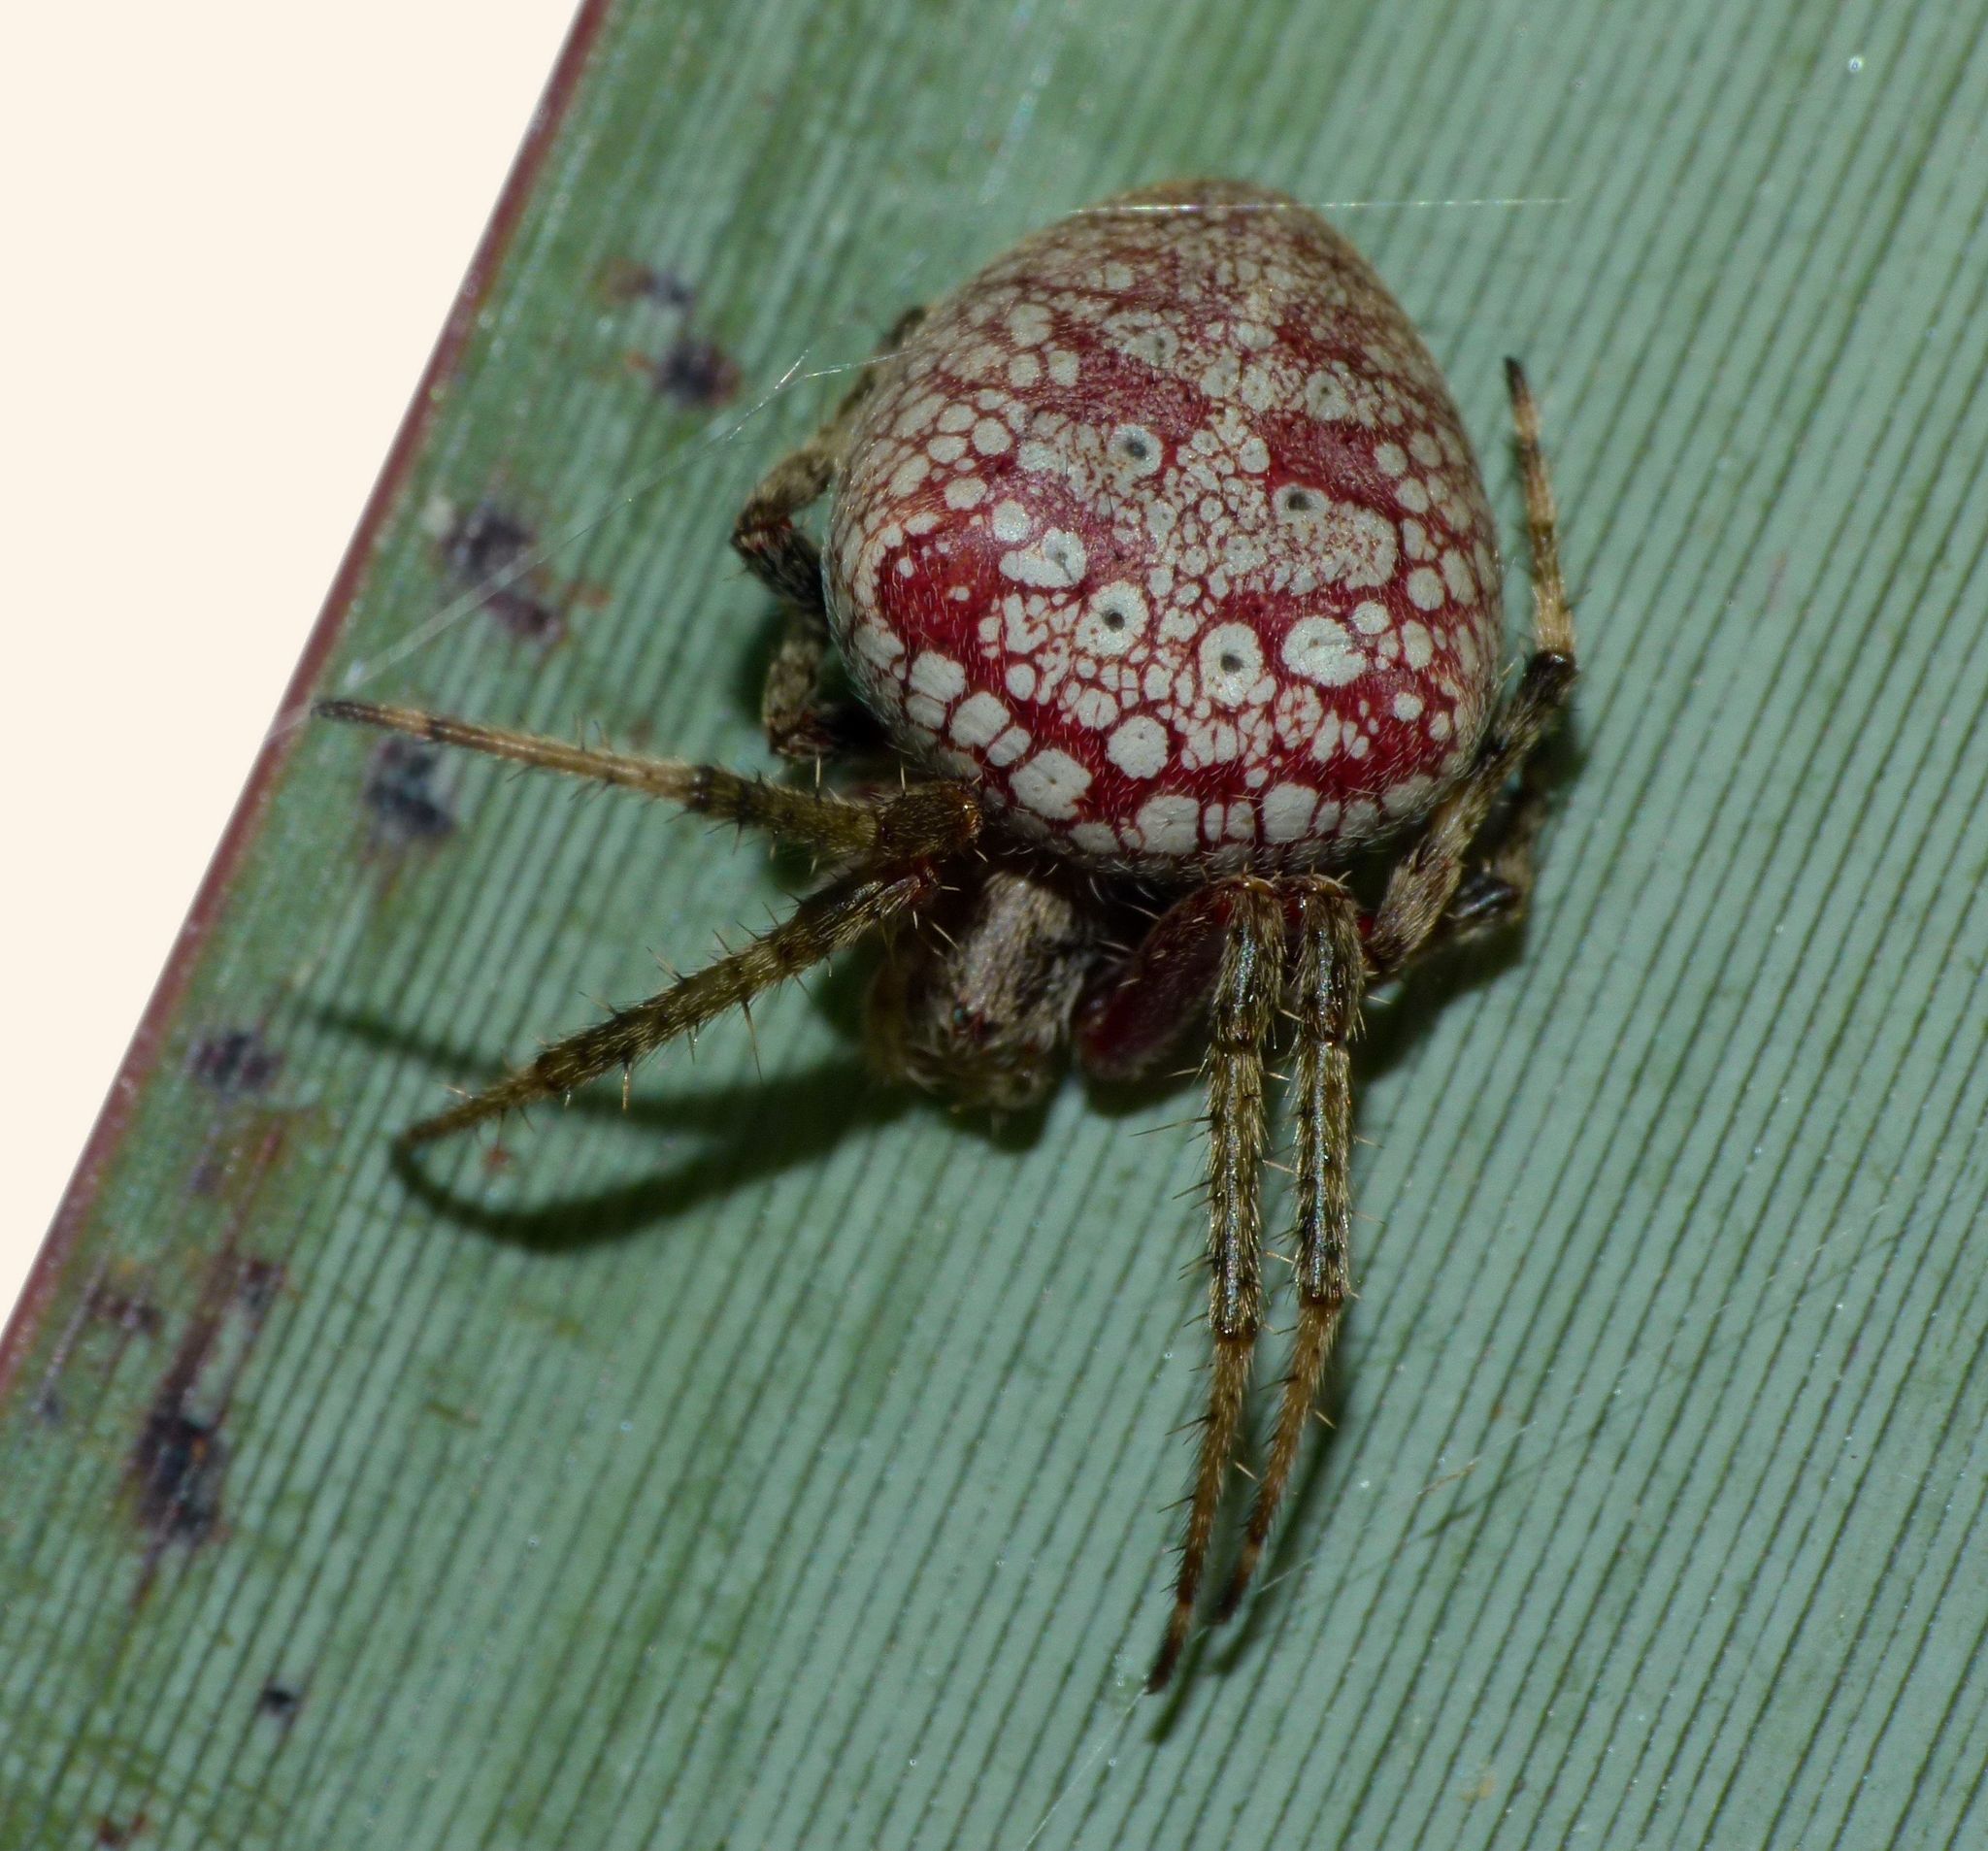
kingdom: Animalia
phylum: Arthropoda
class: Arachnida
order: Araneae
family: Araneidae
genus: Zealaranea
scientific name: Zealaranea prina
